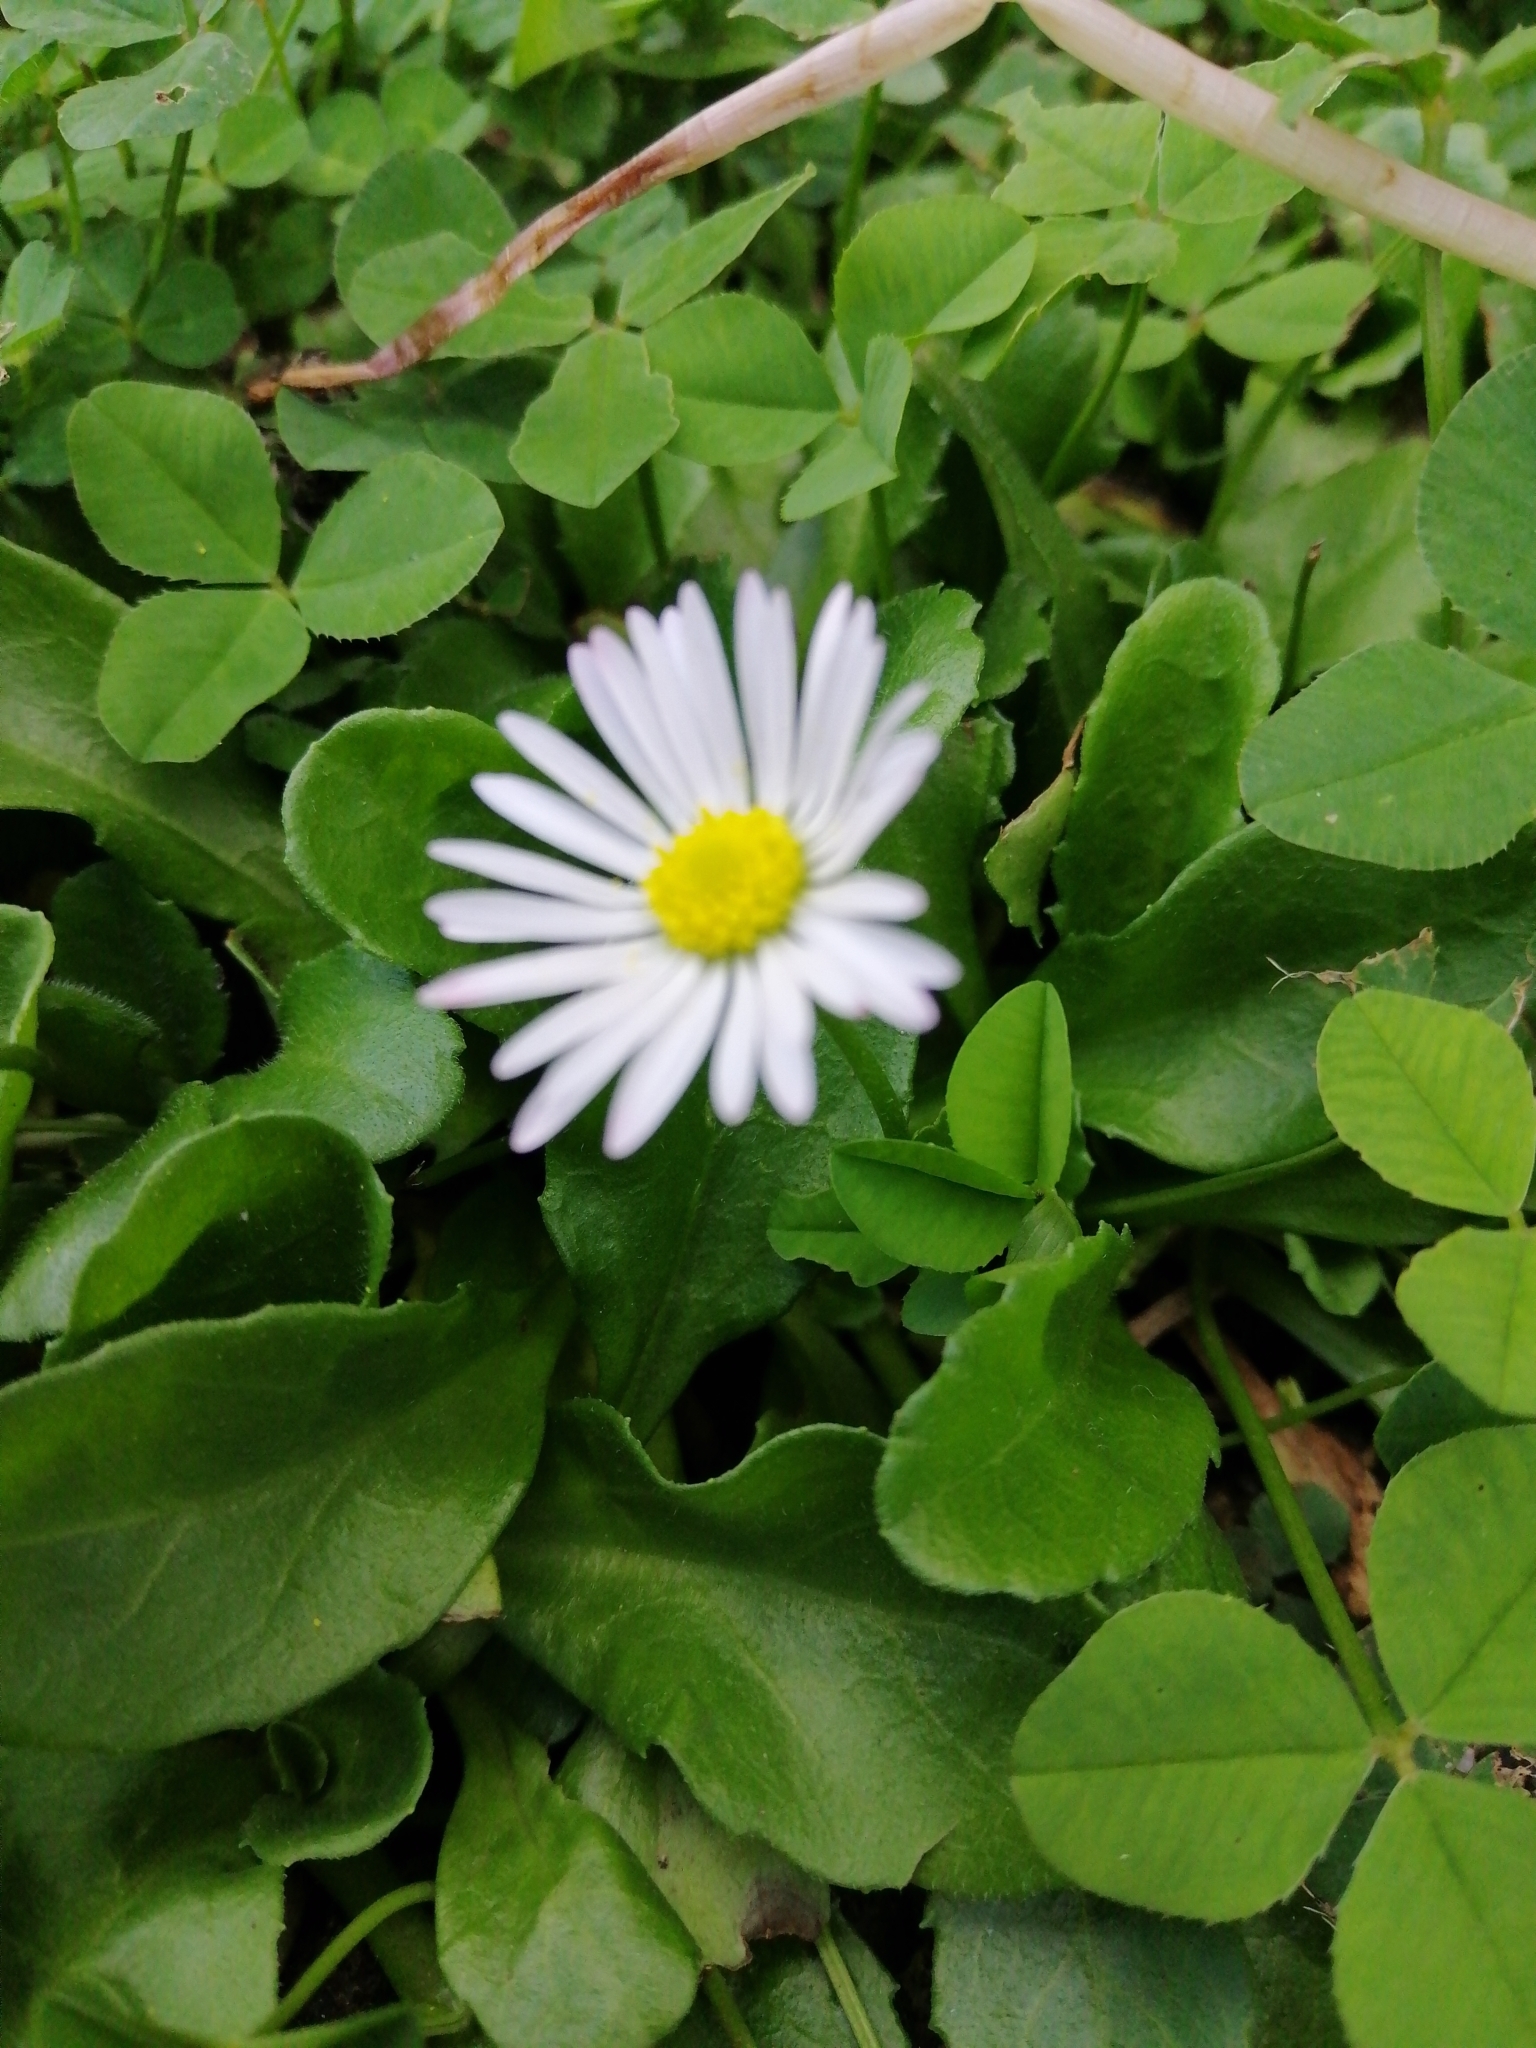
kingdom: Plantae
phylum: Tracheophyta
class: Magnoliopsida
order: Asterales
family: Asteraceae
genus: Bellis
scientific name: Bellis perennis
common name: Lawndaisy
